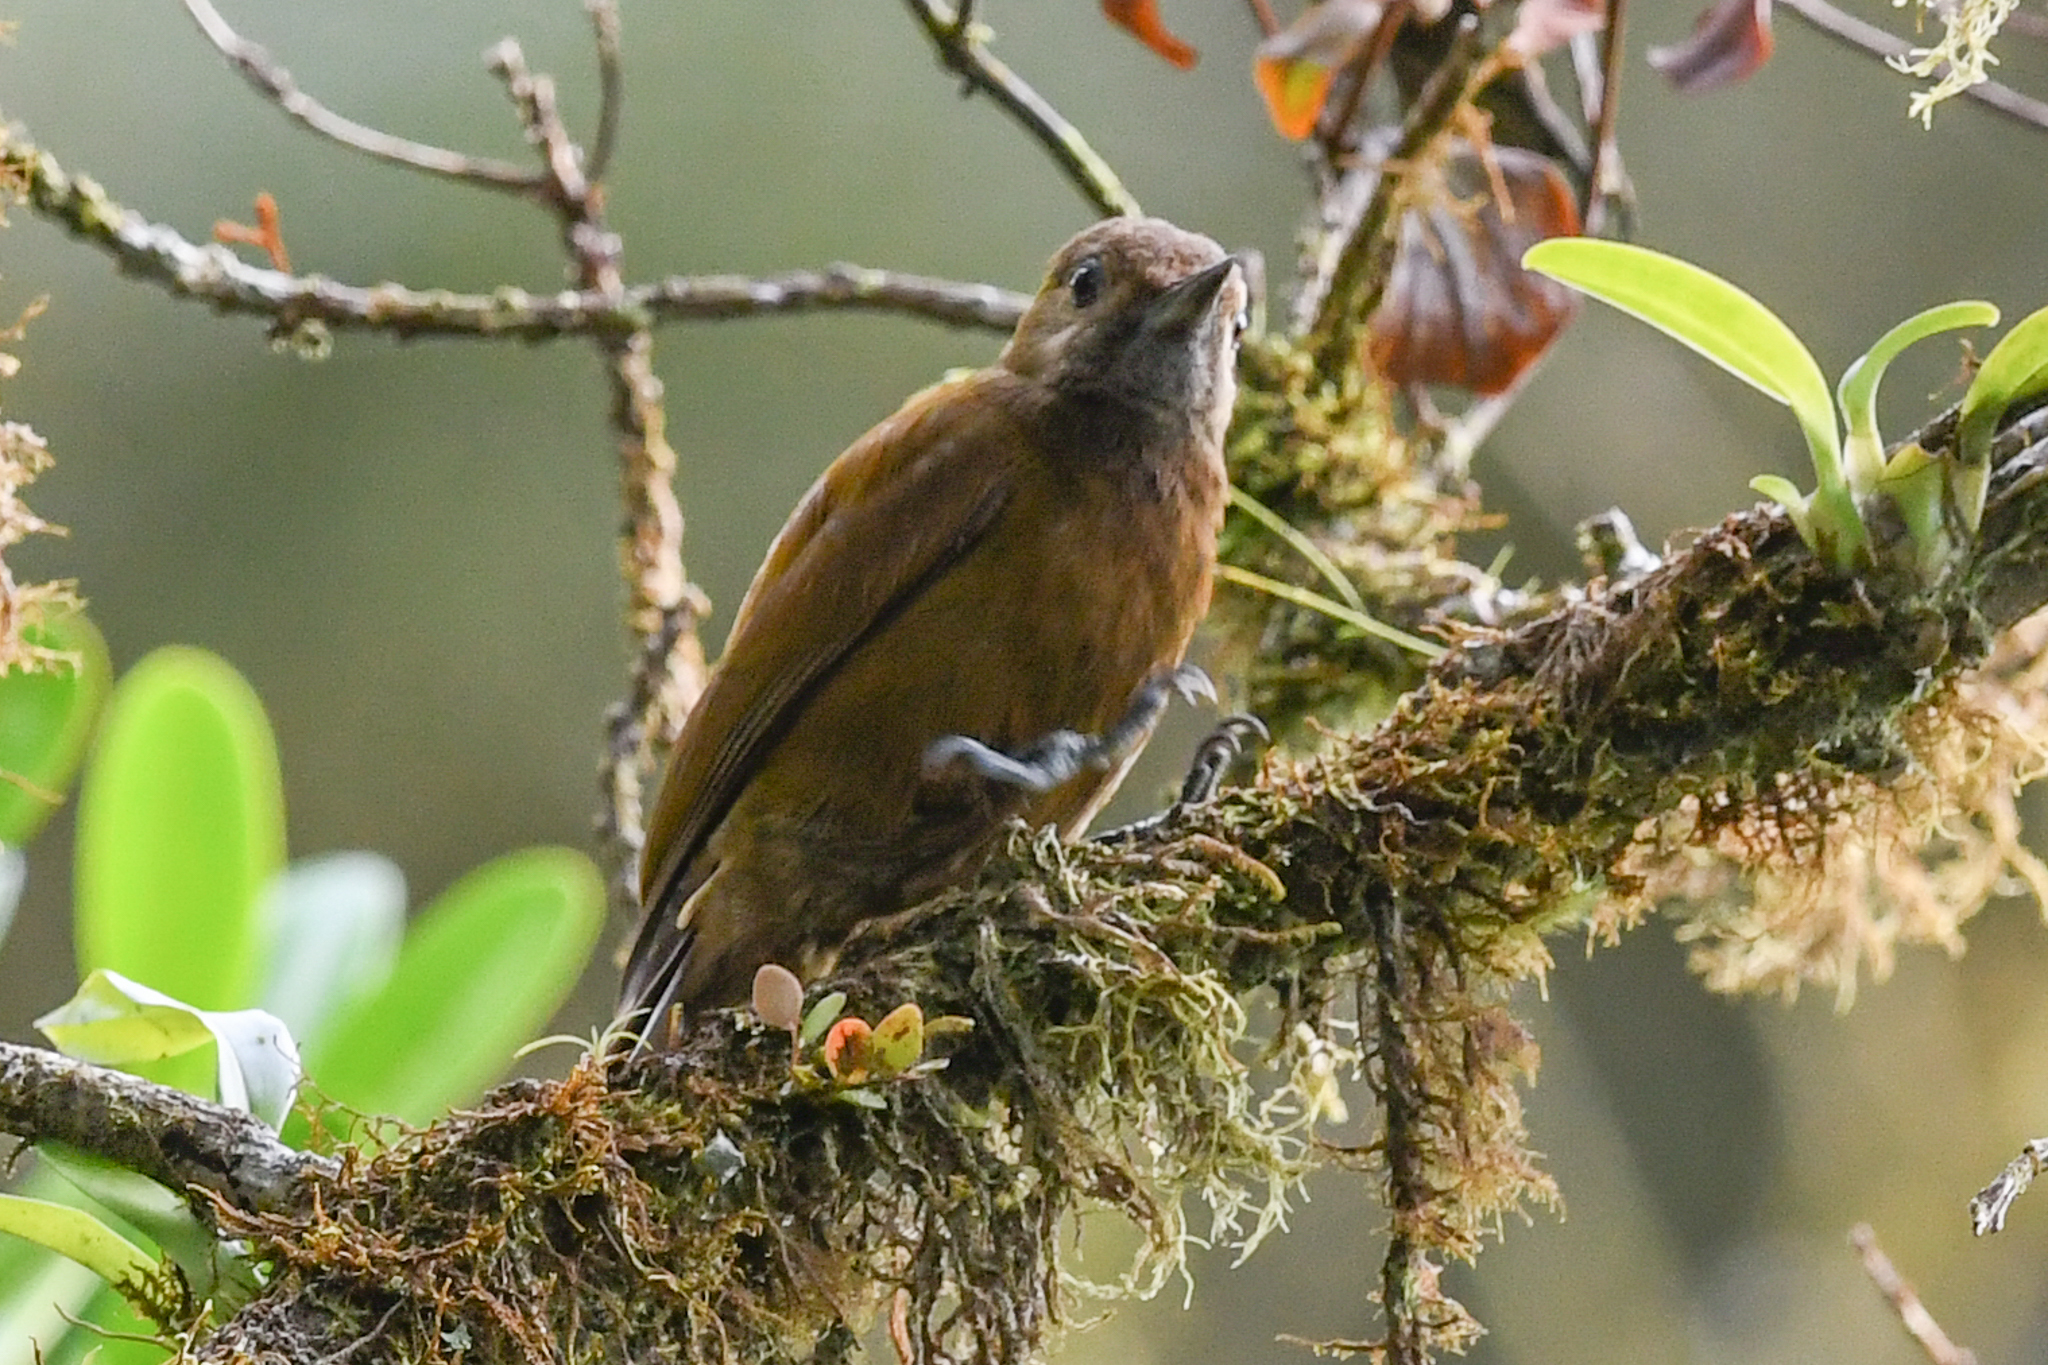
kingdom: Animalia
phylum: Chordata
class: Aves
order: Piciformes
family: Picidae
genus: Leuconotopicus
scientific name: Leuconotopicus fumigatus
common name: Smoky-brown woodpecker
